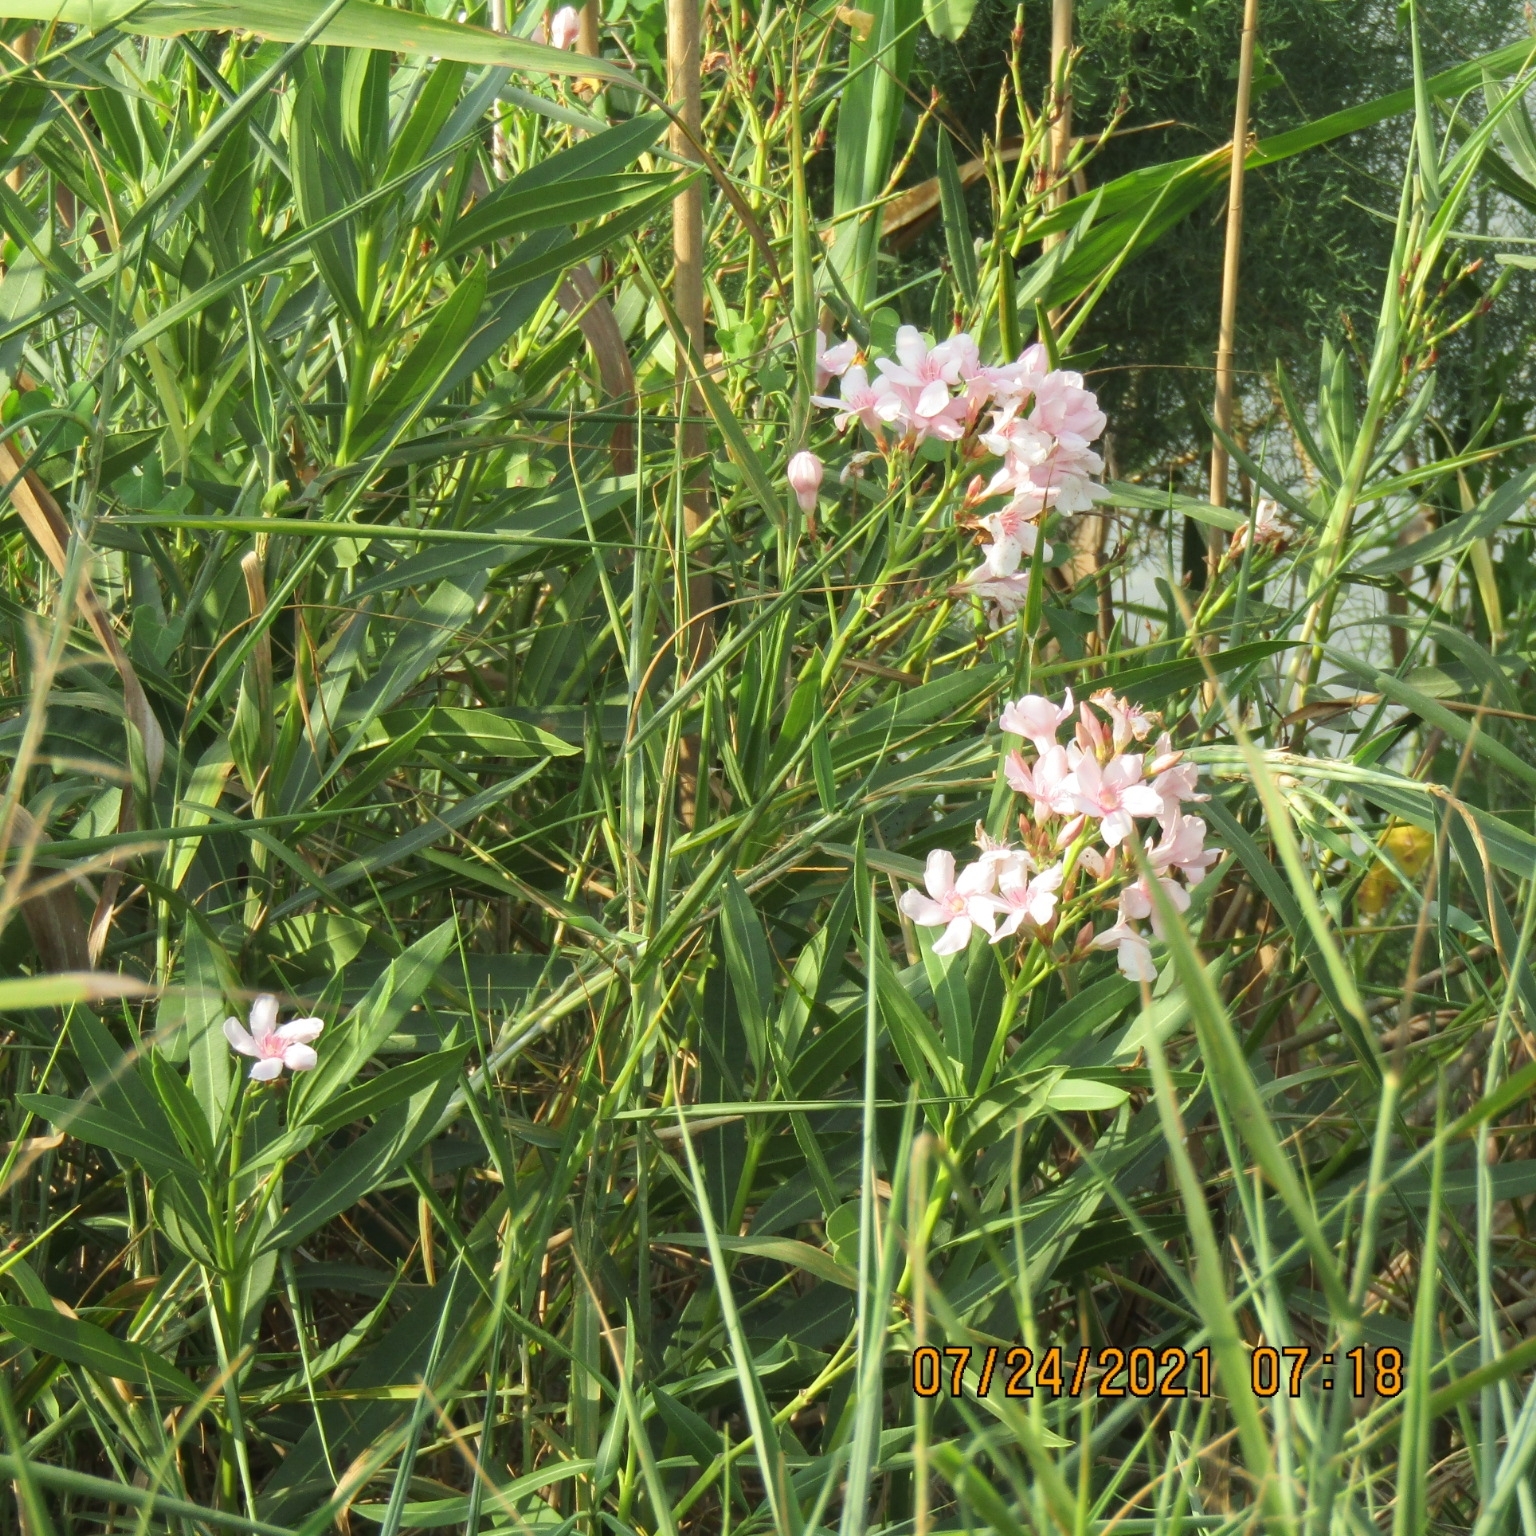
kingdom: Plantae
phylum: Tracheophyta
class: Magnoliopsida
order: Gentianales
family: Apocynaceae
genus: Nerium
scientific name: Nerium oleander
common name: Oleander
